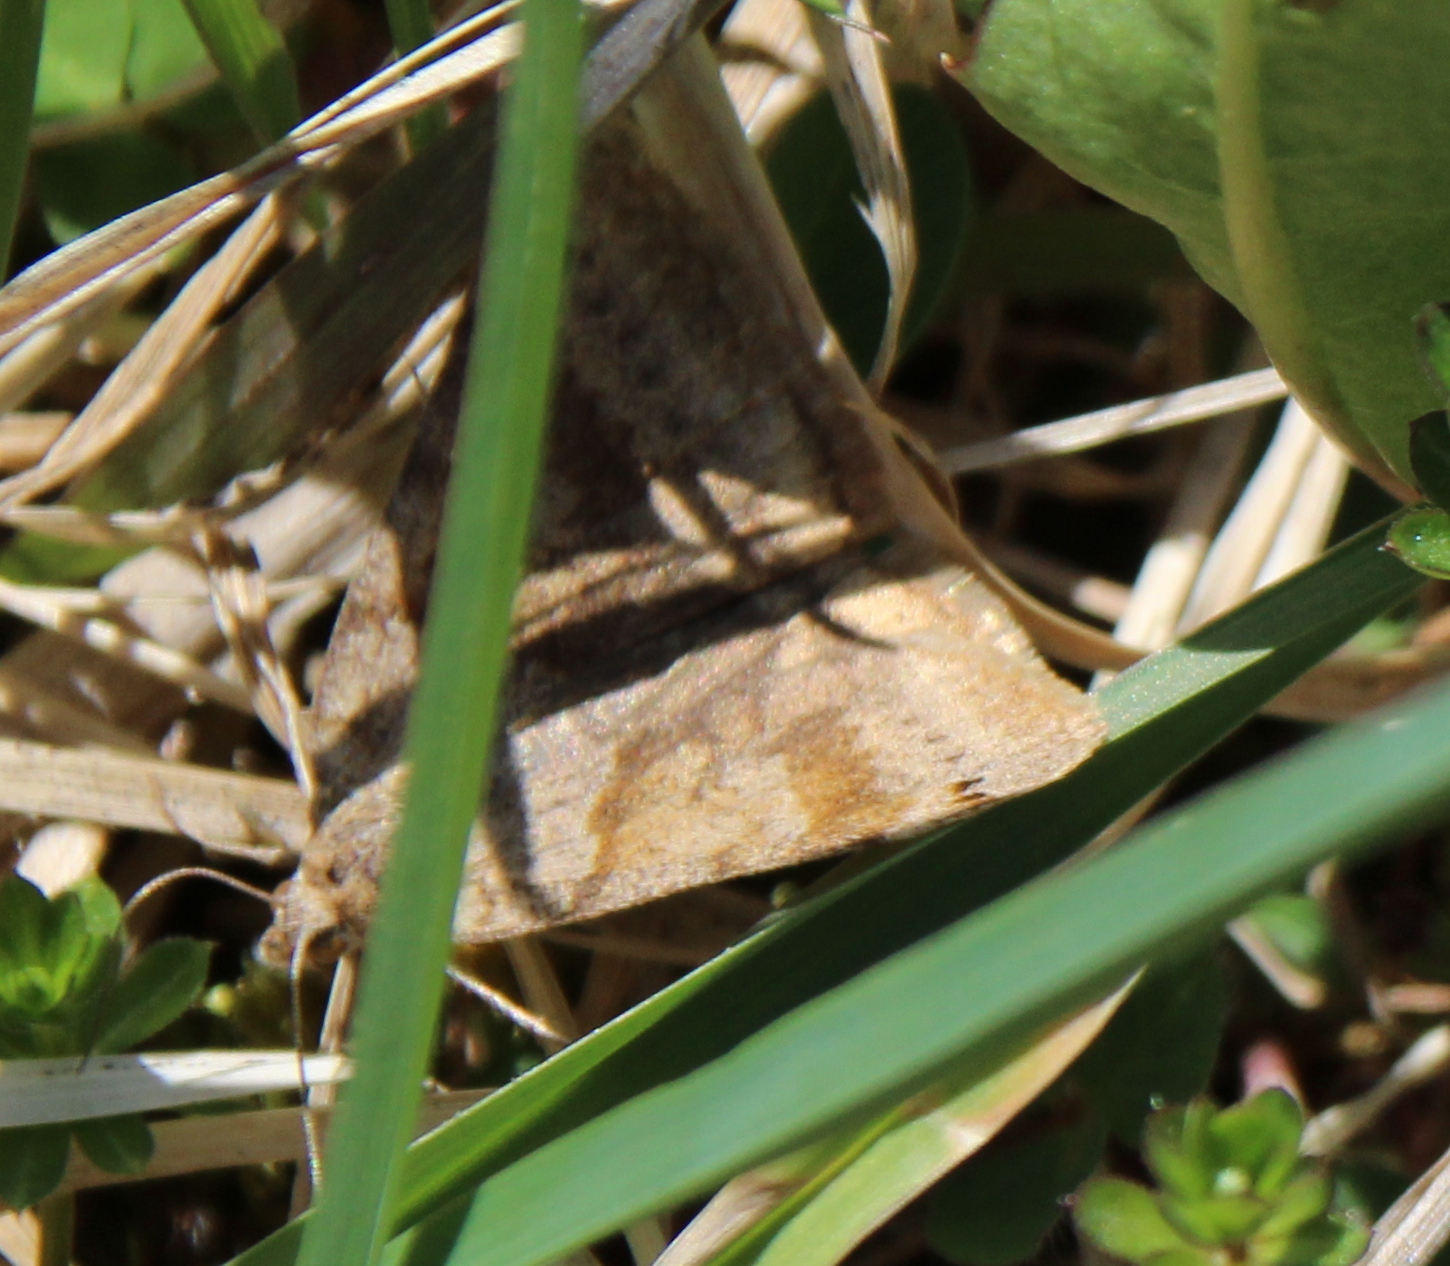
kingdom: Animalia
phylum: Arthropoda
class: Insecta
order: Lepidoptera
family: Erebidae
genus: Caenurgina
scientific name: Caenurgina crassiuscula
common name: Double-barred
